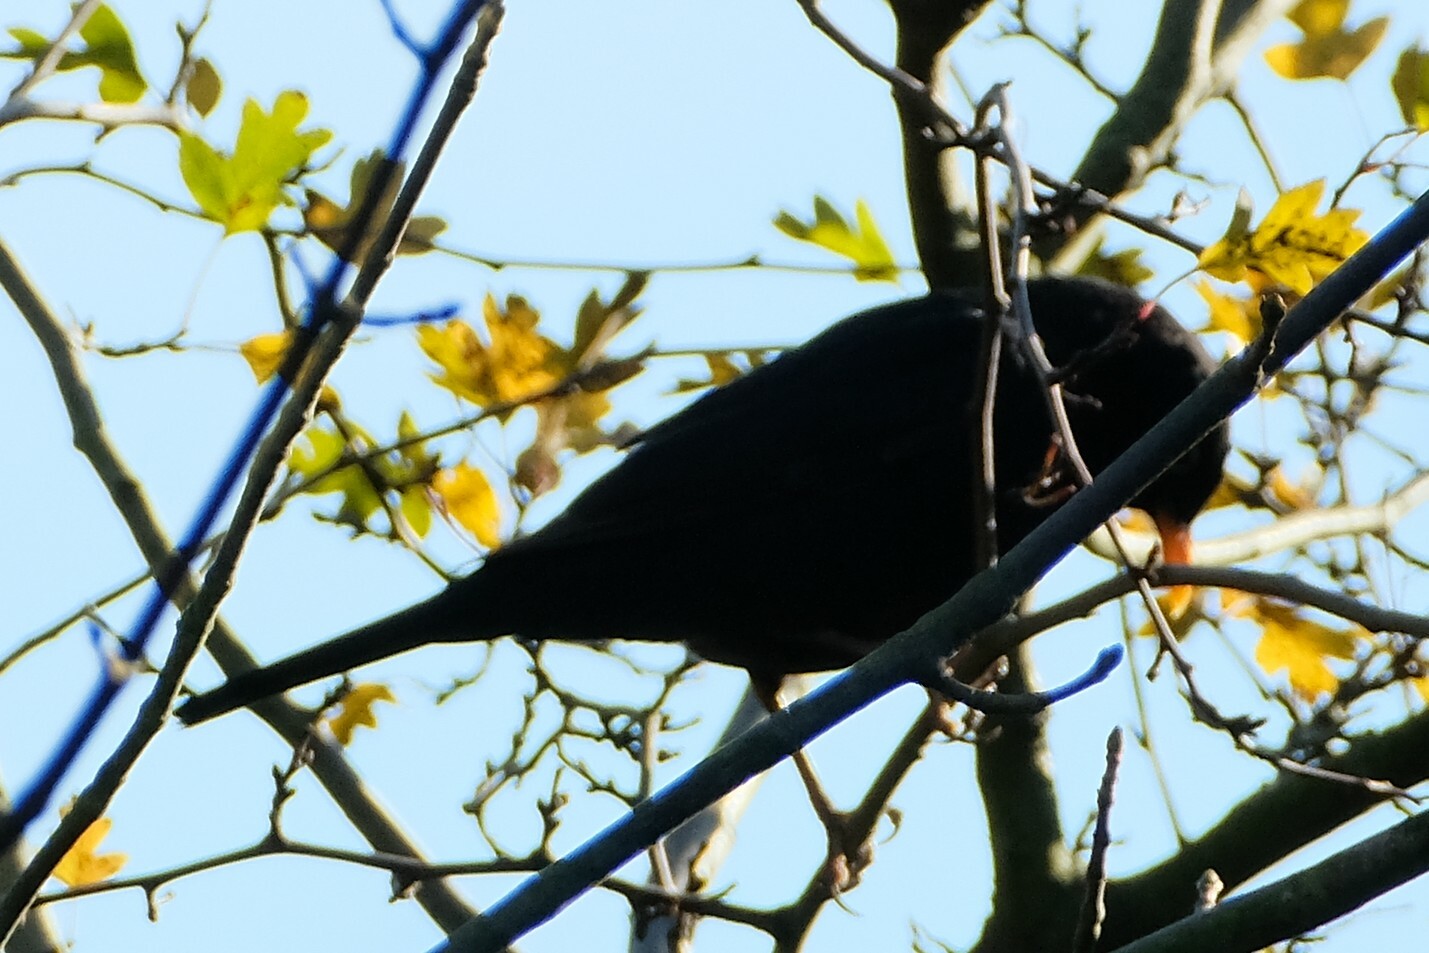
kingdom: Animalia
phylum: Chordata
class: Aves
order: Passeriformes
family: Turdidae
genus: Turdus
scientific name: Turdus merula
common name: Common blackbird
